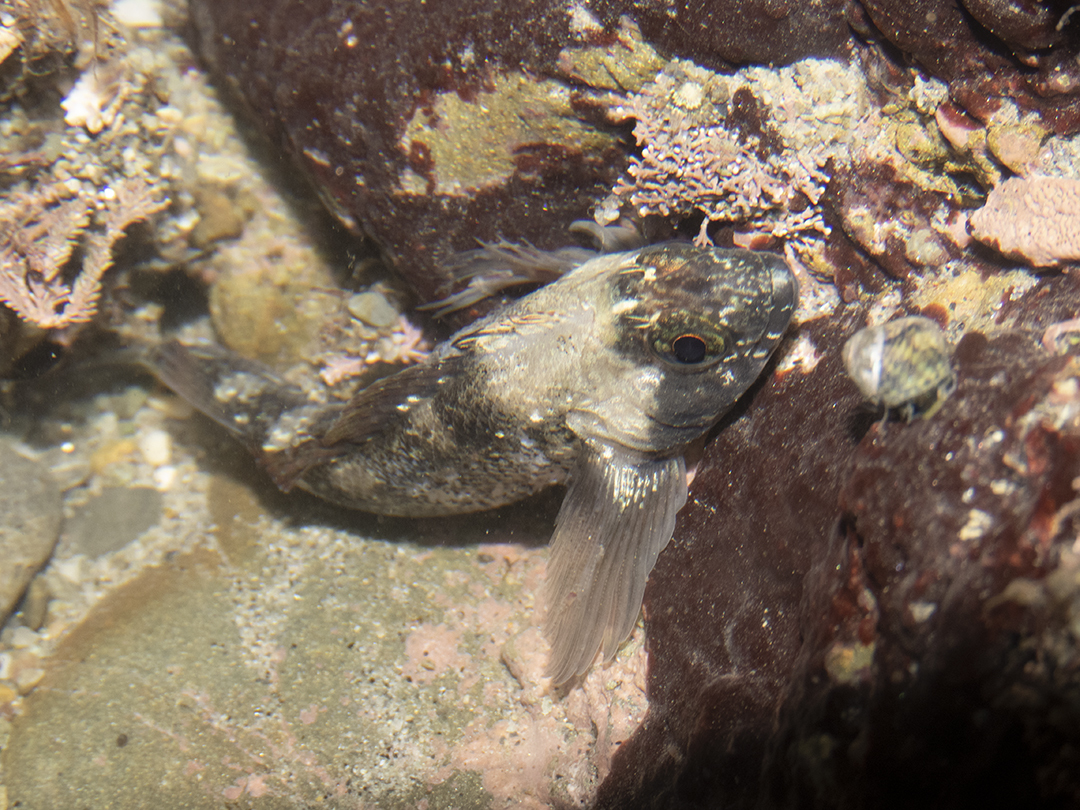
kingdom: Animalia
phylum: Chordata
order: Perciformes
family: Tripterygiidae
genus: Forsterygion
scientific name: Forsterygion capito
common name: Spotted robust triplefin
